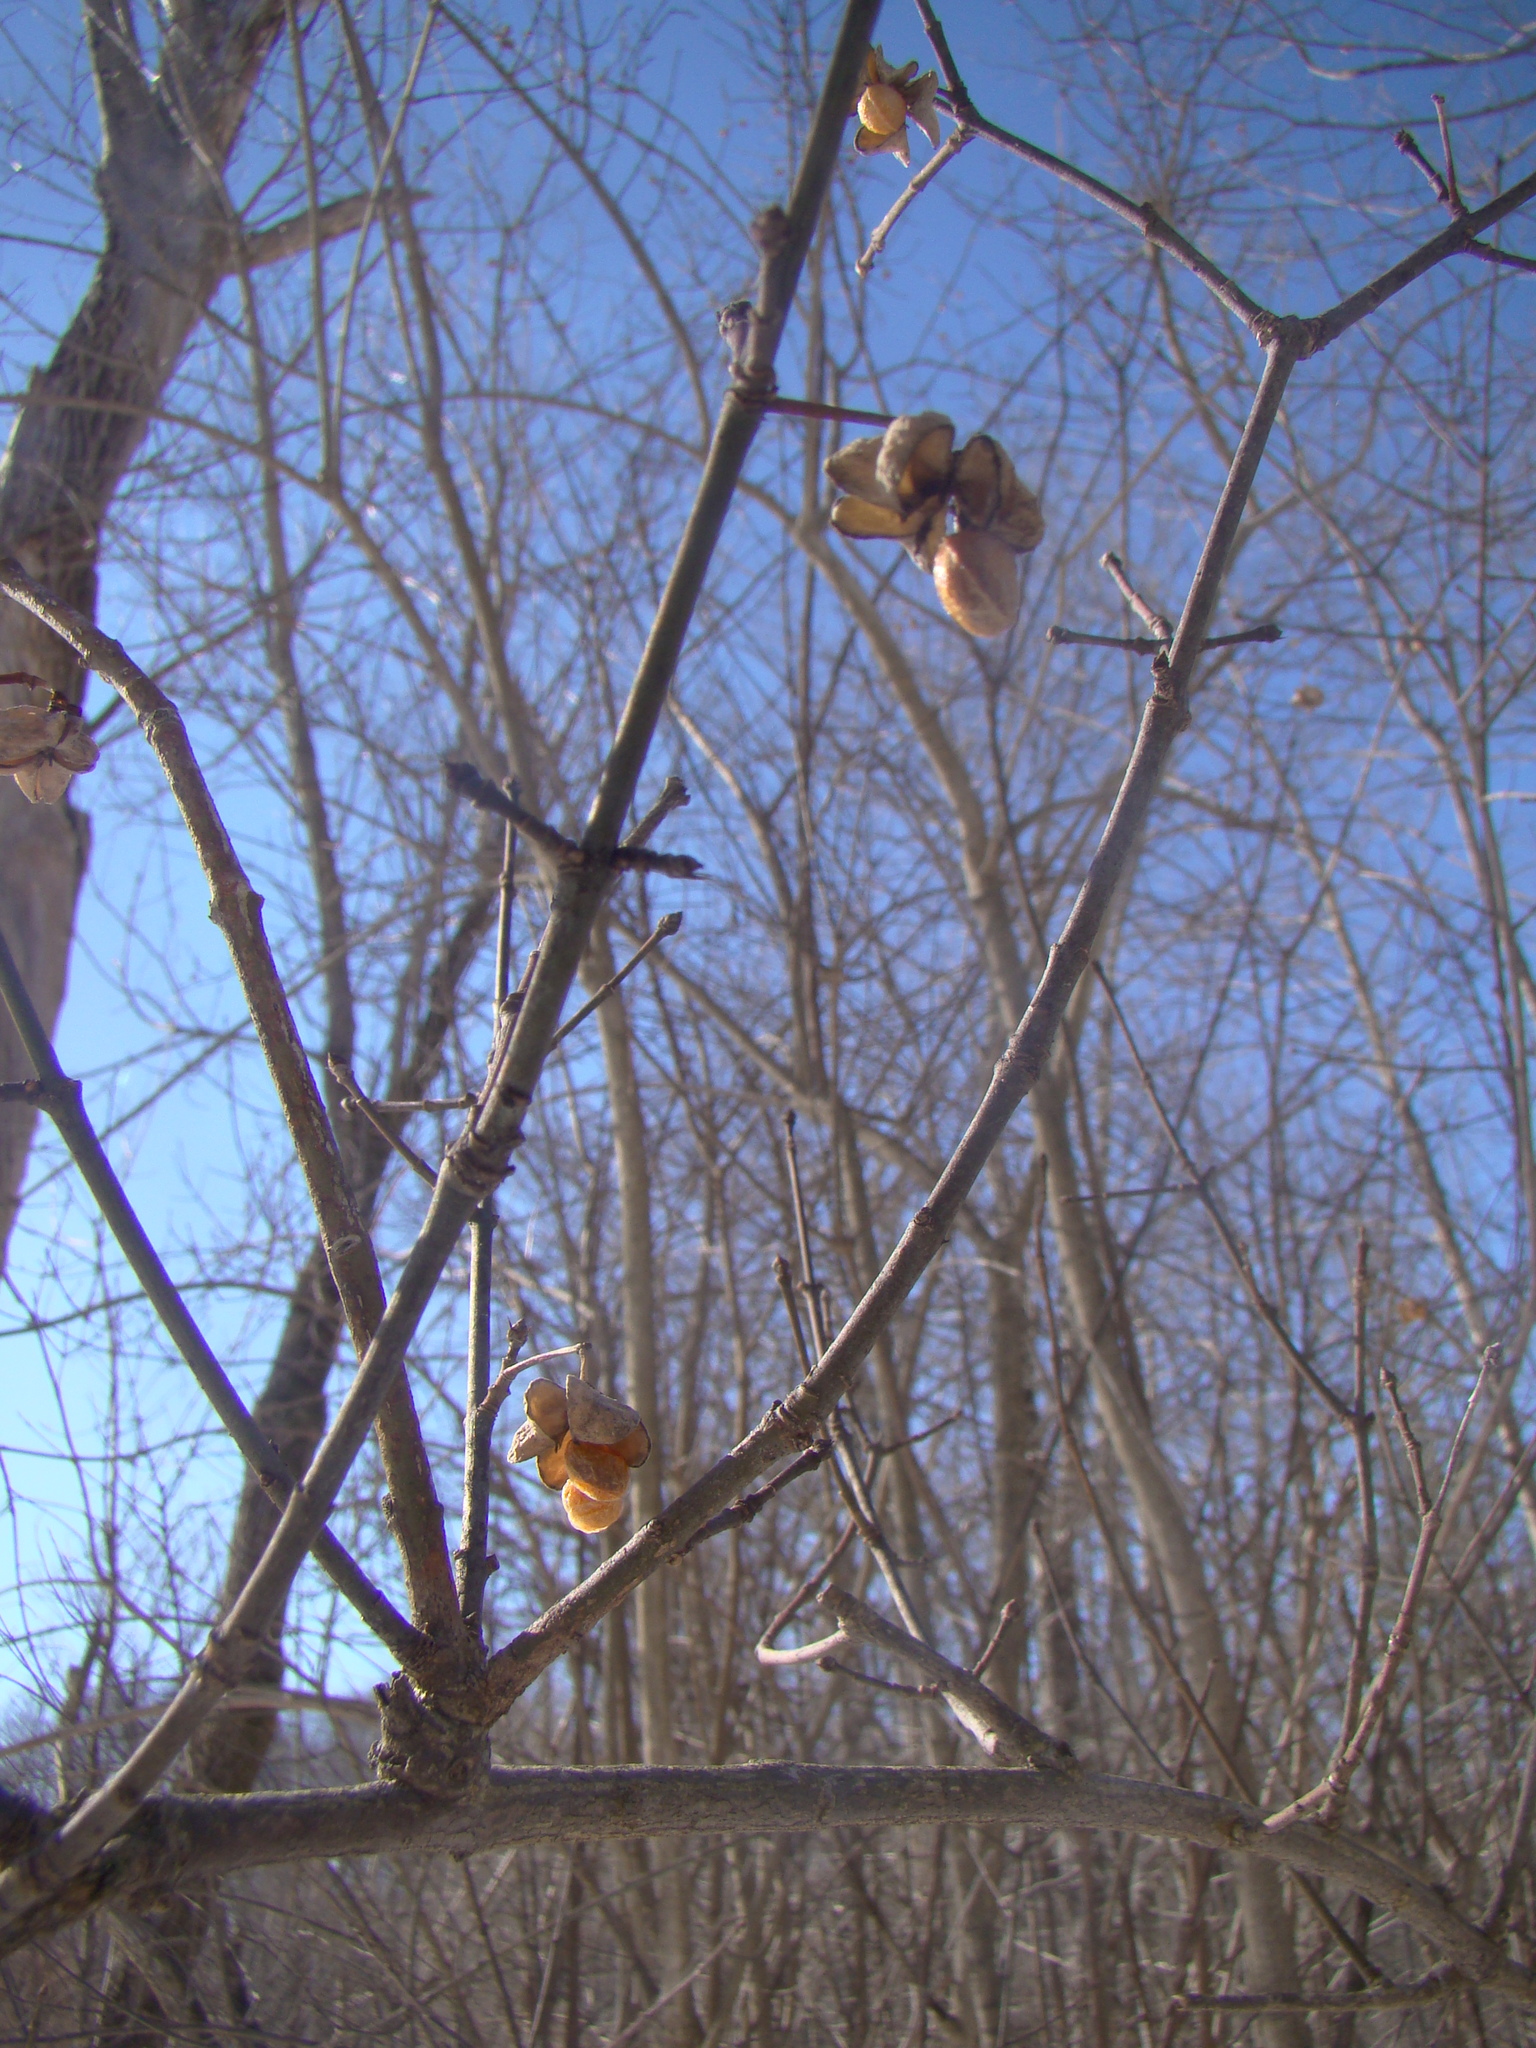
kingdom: Plantae
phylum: Tracheophyta
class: Magnoliopsida
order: Celastrales
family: Celastraceae
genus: Euonymus
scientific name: Euonymus europaeus
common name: Spindle
